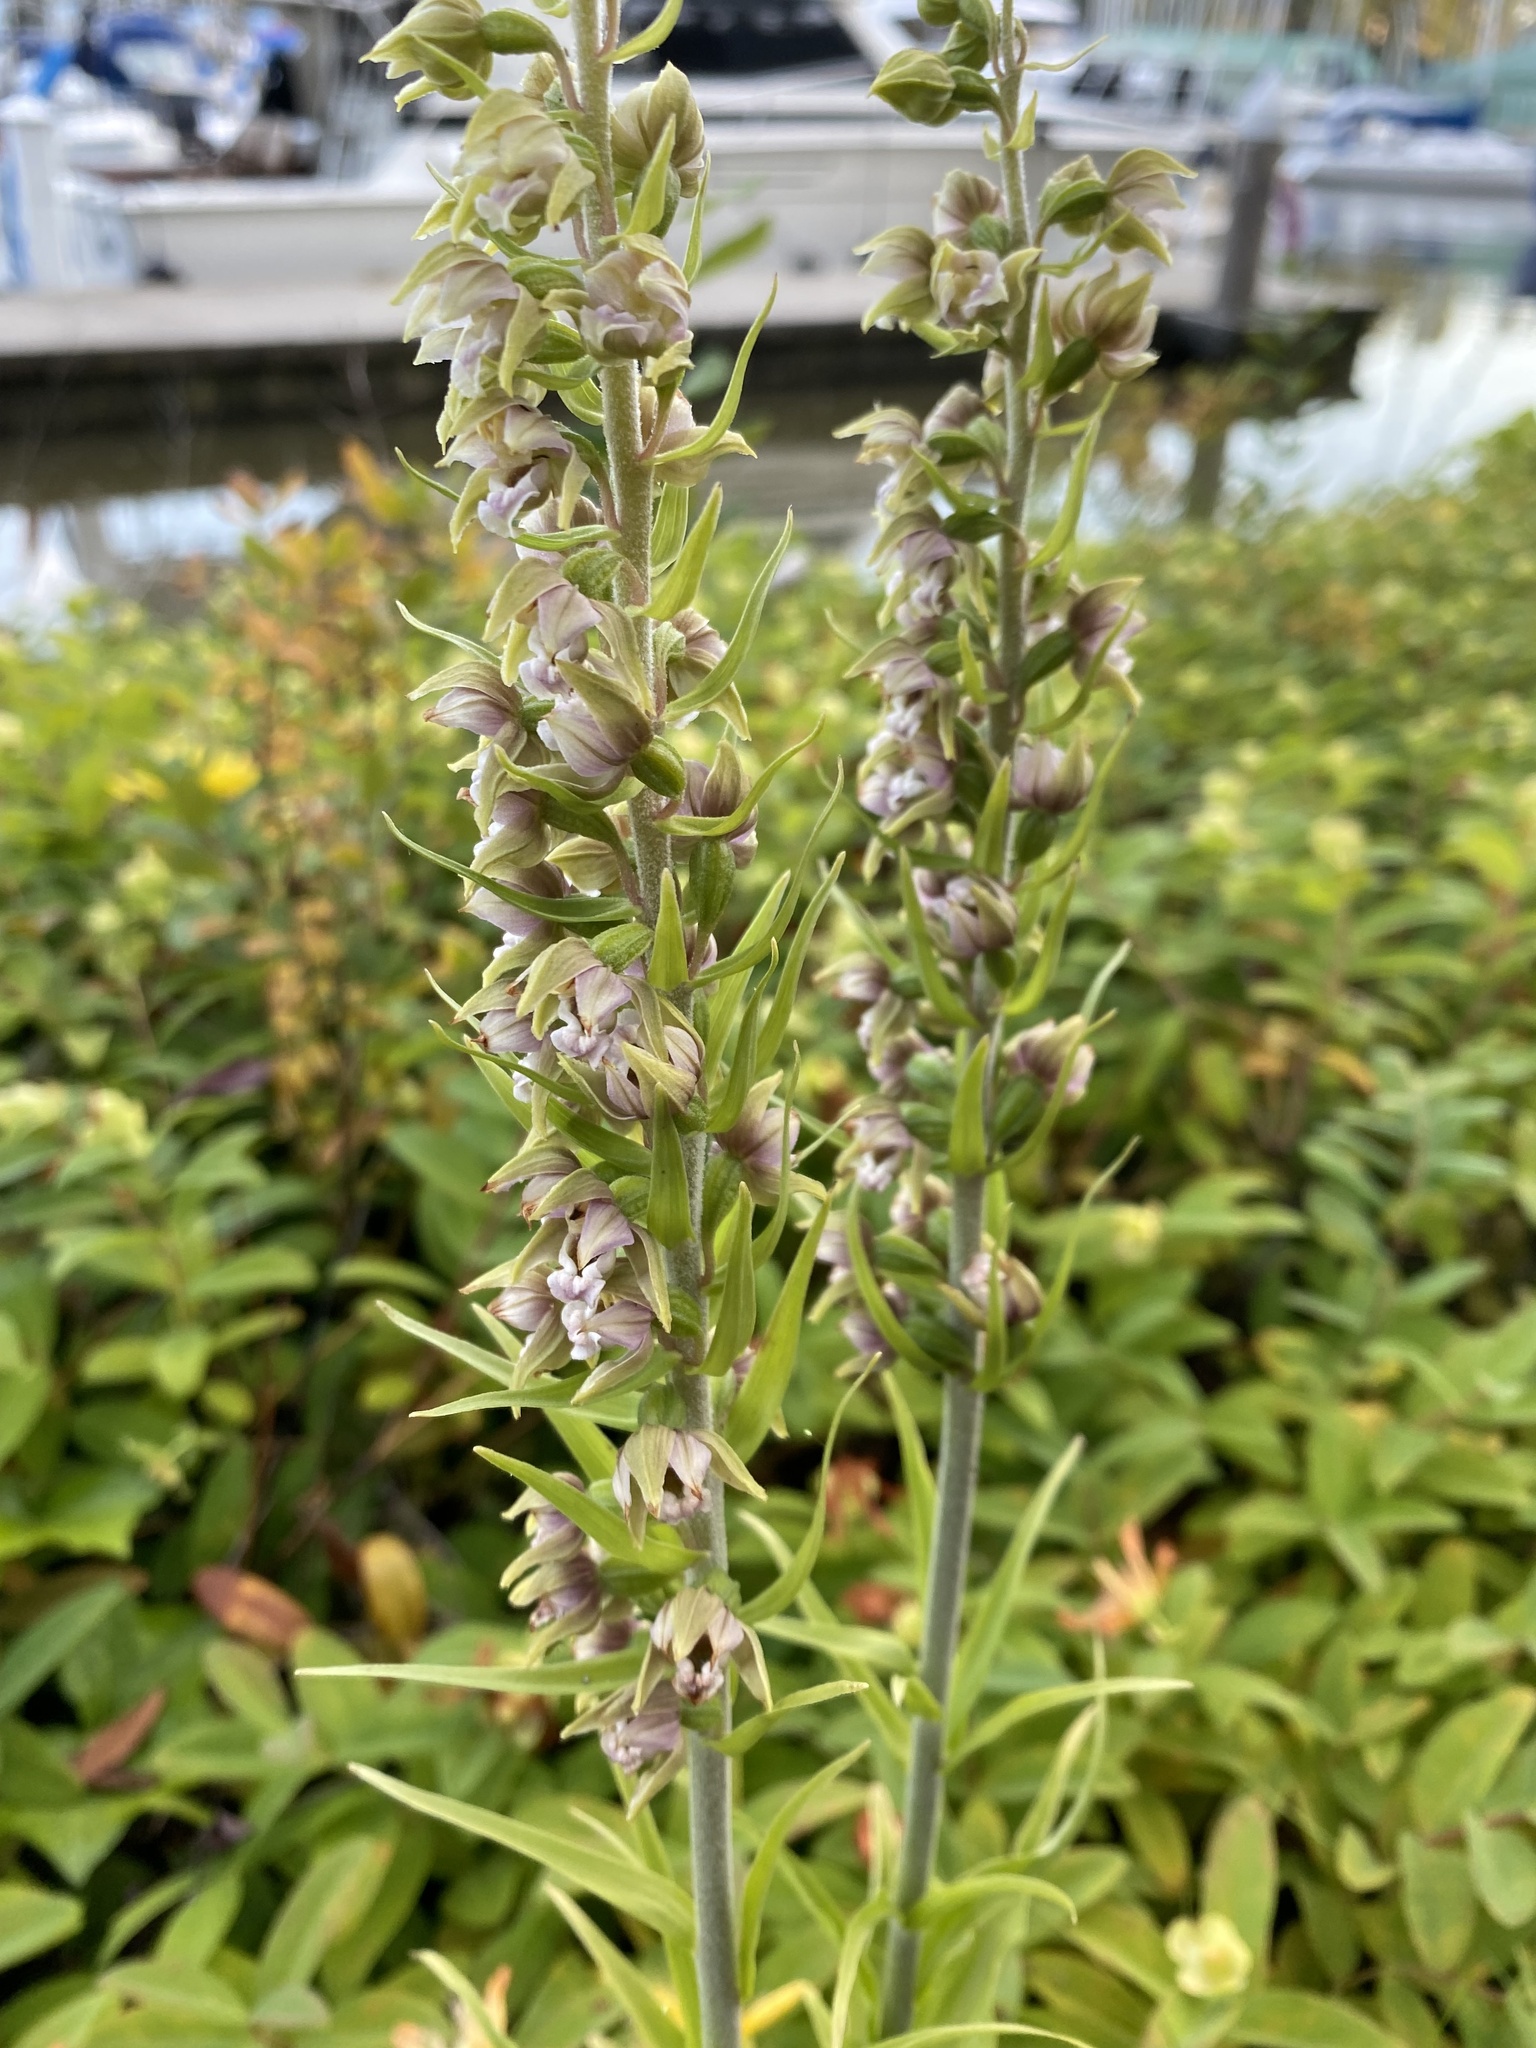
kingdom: Plantae
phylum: Tracheophyta
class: Liliopsida
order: Asparagales
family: Orchidaceae
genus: Epipactis
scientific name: Epipactis helleborine
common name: Broad-leaved helleborine
